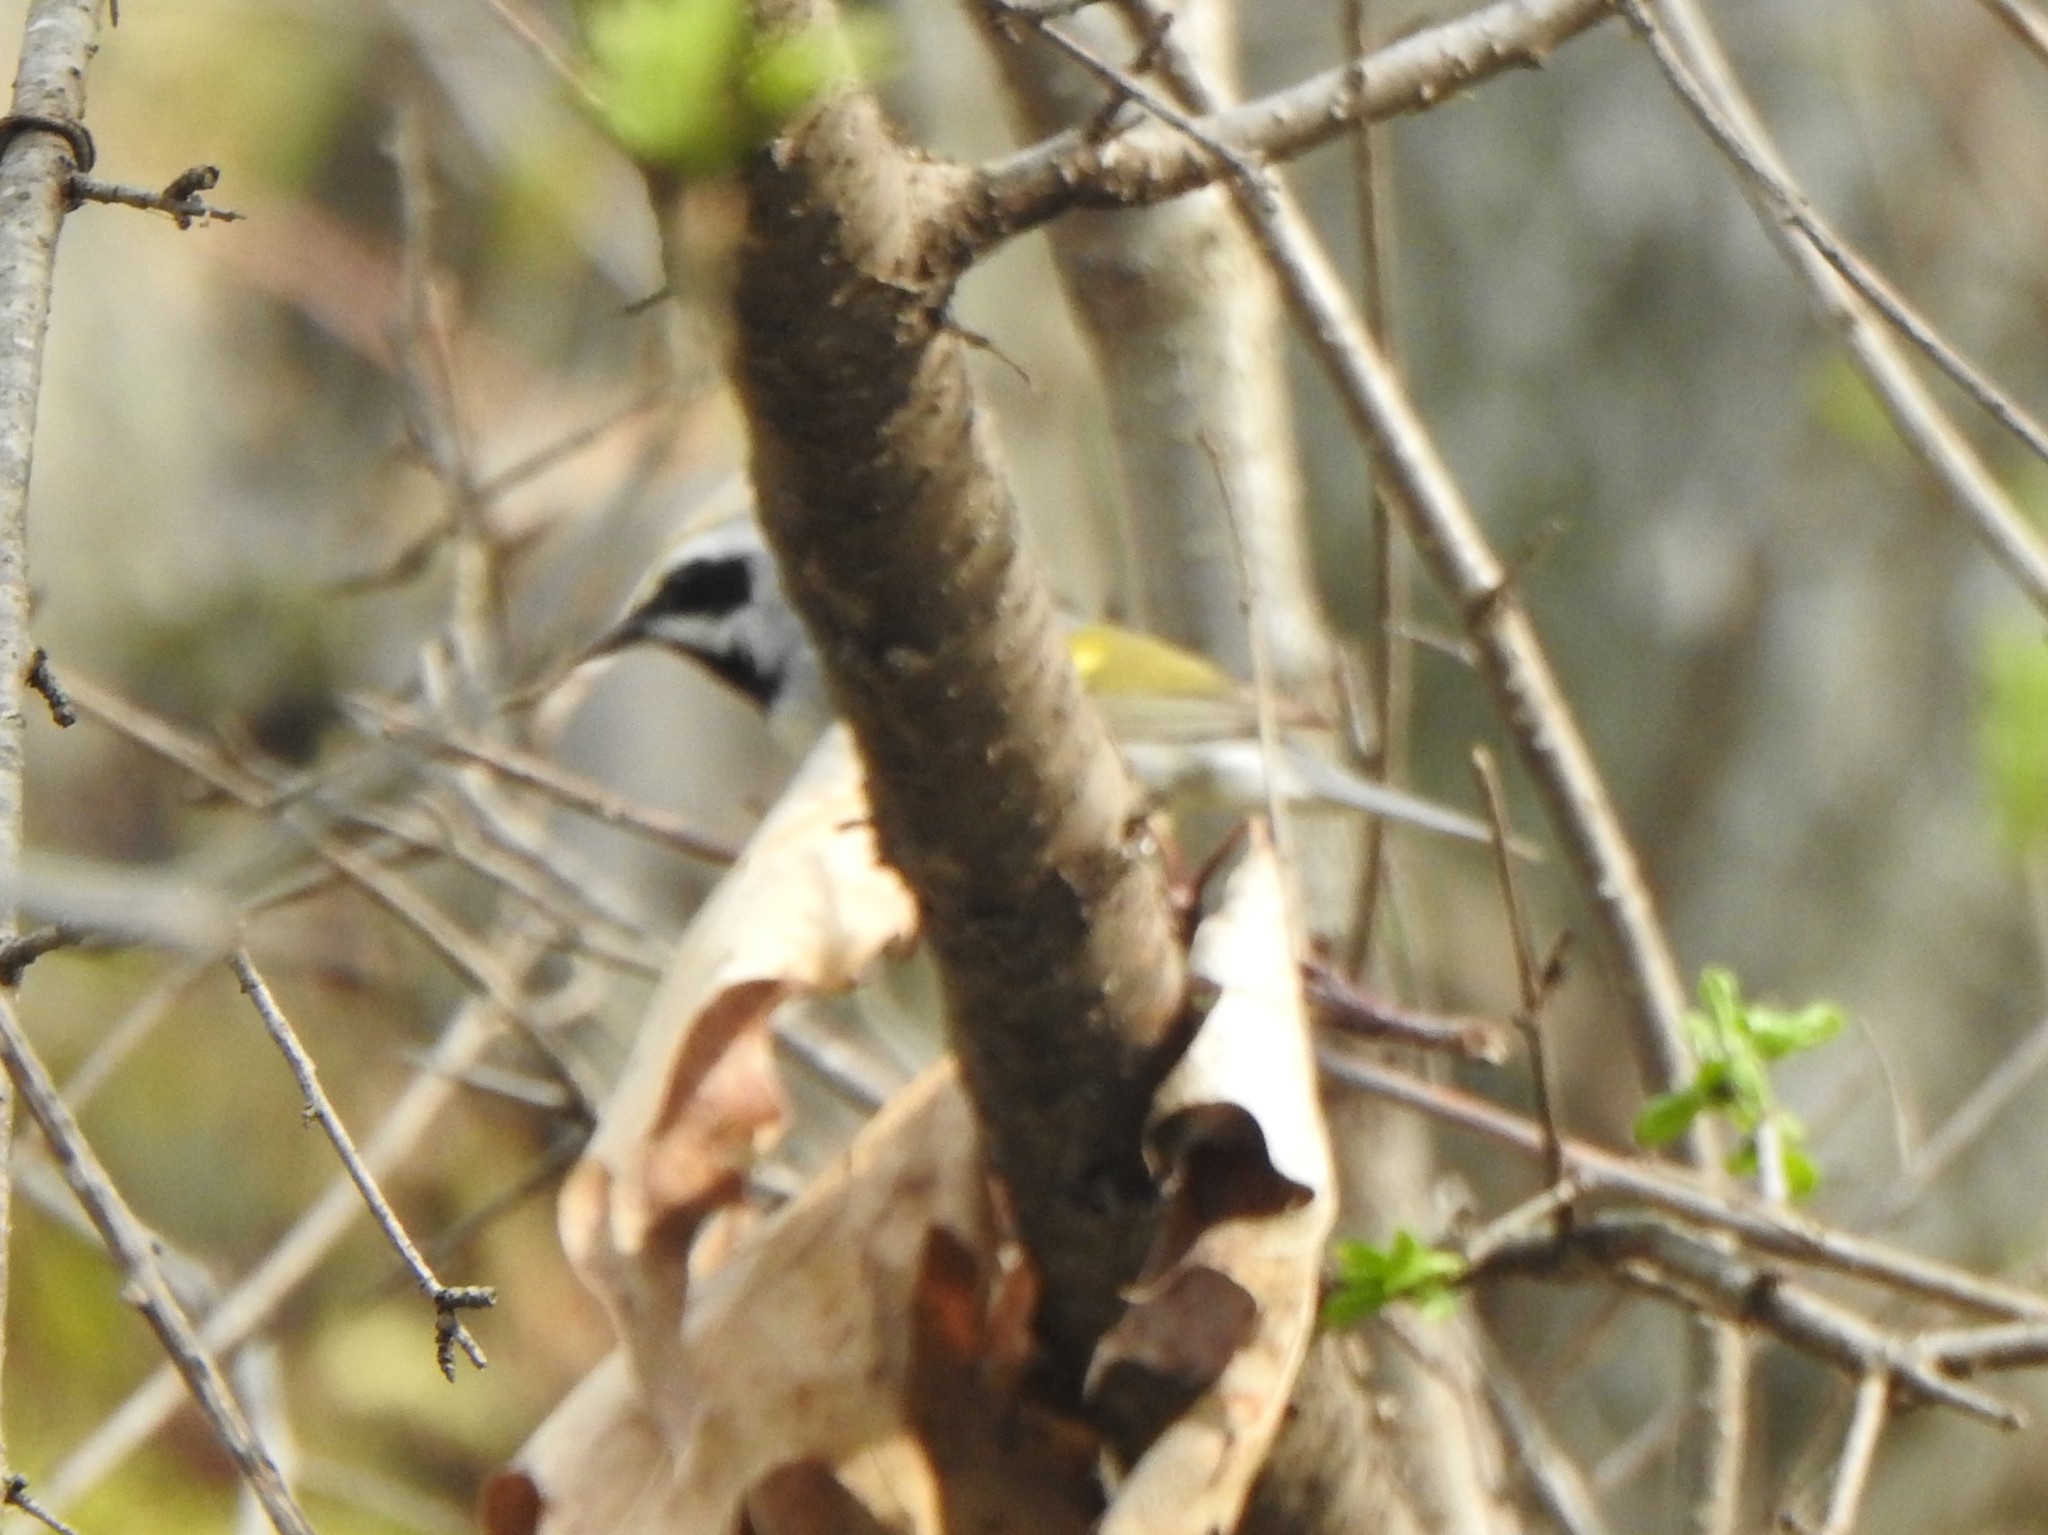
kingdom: Animalia
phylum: Chordata
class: Aves
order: Passeriformes
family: Parulidae
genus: Vermivora
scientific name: Vermivora chrysoptera
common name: Golden-winged warbler
